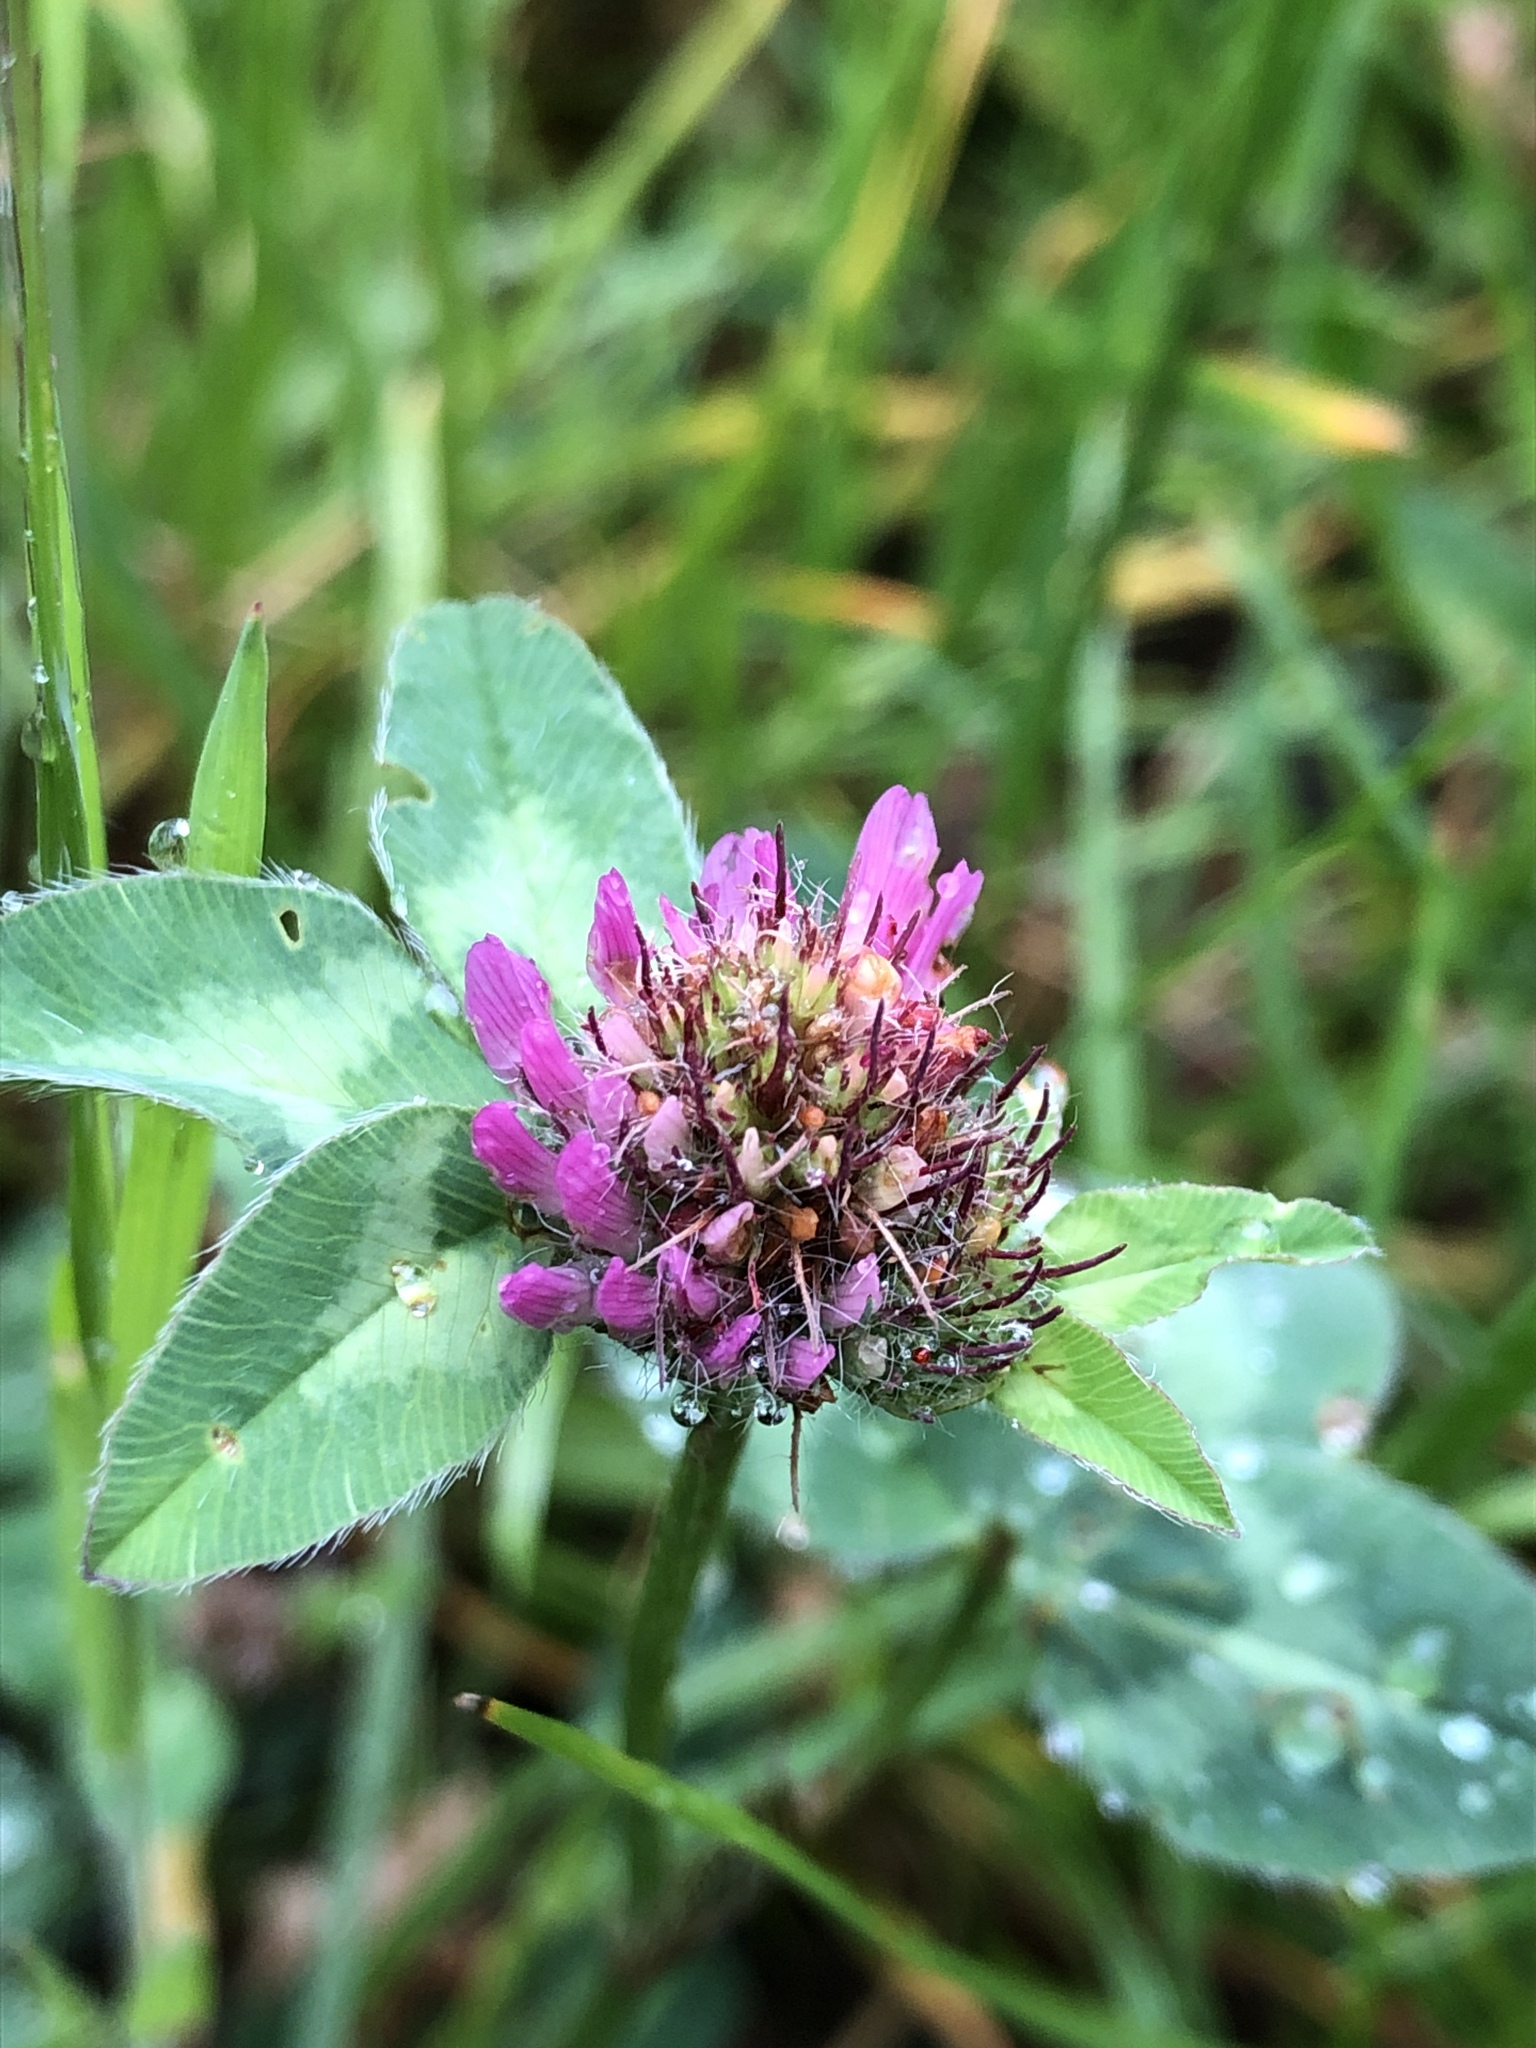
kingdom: Plantae
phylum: Tracheophyta
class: Magnoliopsida
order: Fabales
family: Fabaceae
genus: Trifolium
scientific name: Trifolium pratense
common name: Red clover
